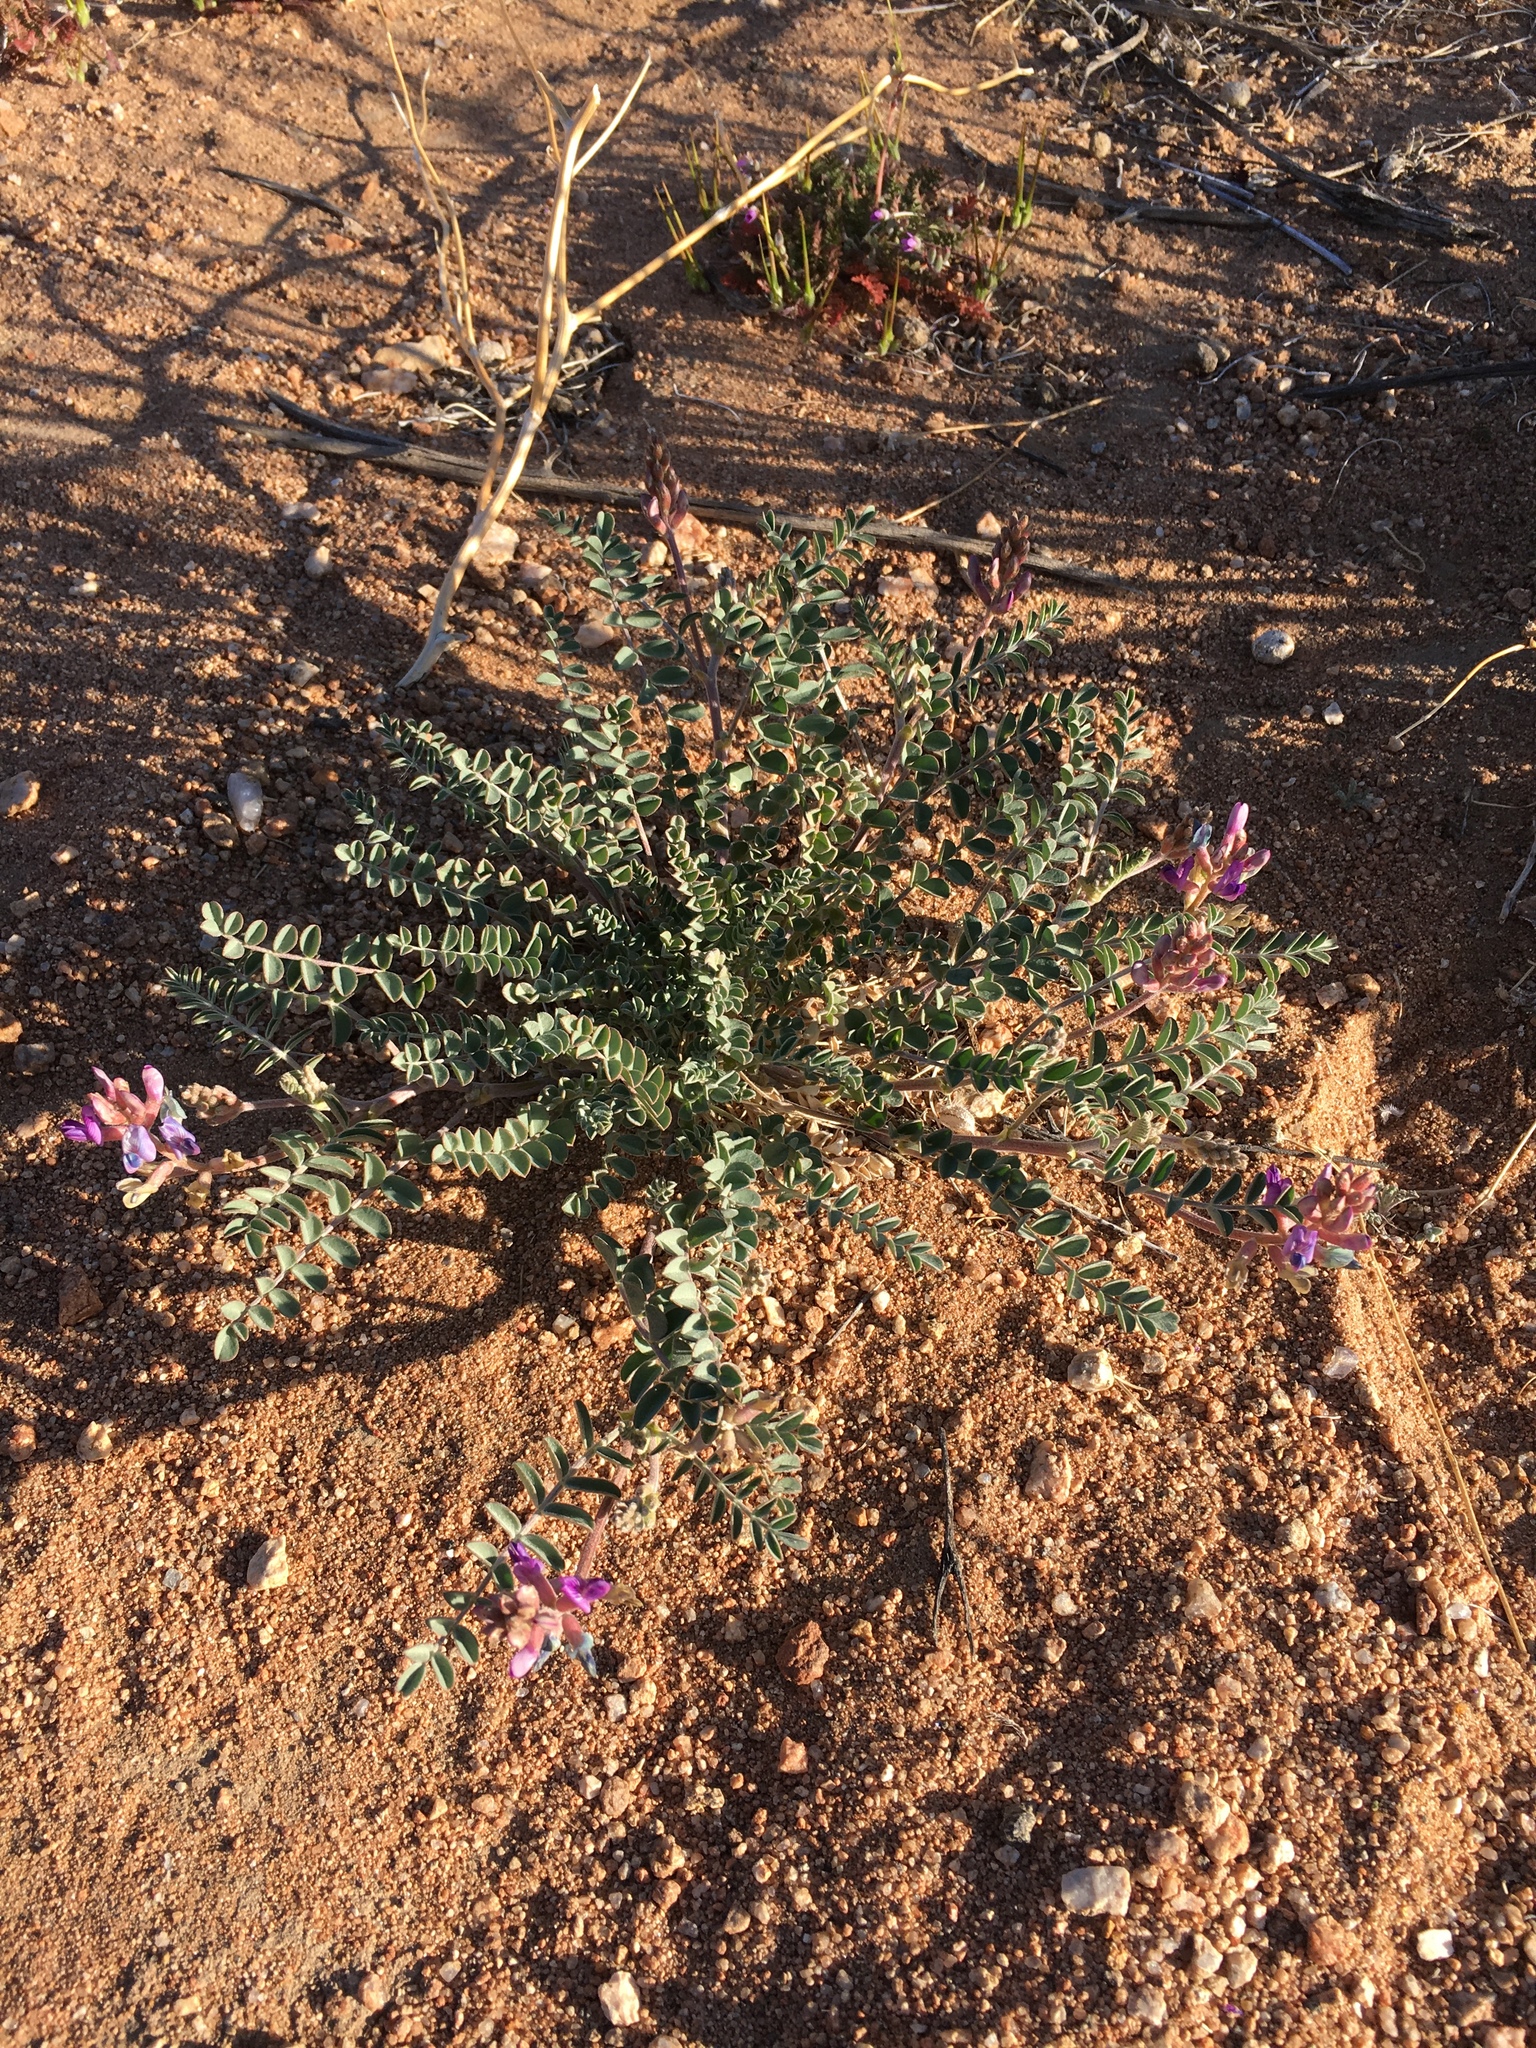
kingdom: Plantae
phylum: Tracheophyta
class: Magnoliopsida
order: Fabales
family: Fabaceae
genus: Astragalus
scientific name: Astragalus lentiginosus
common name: Freckled milkvetch
